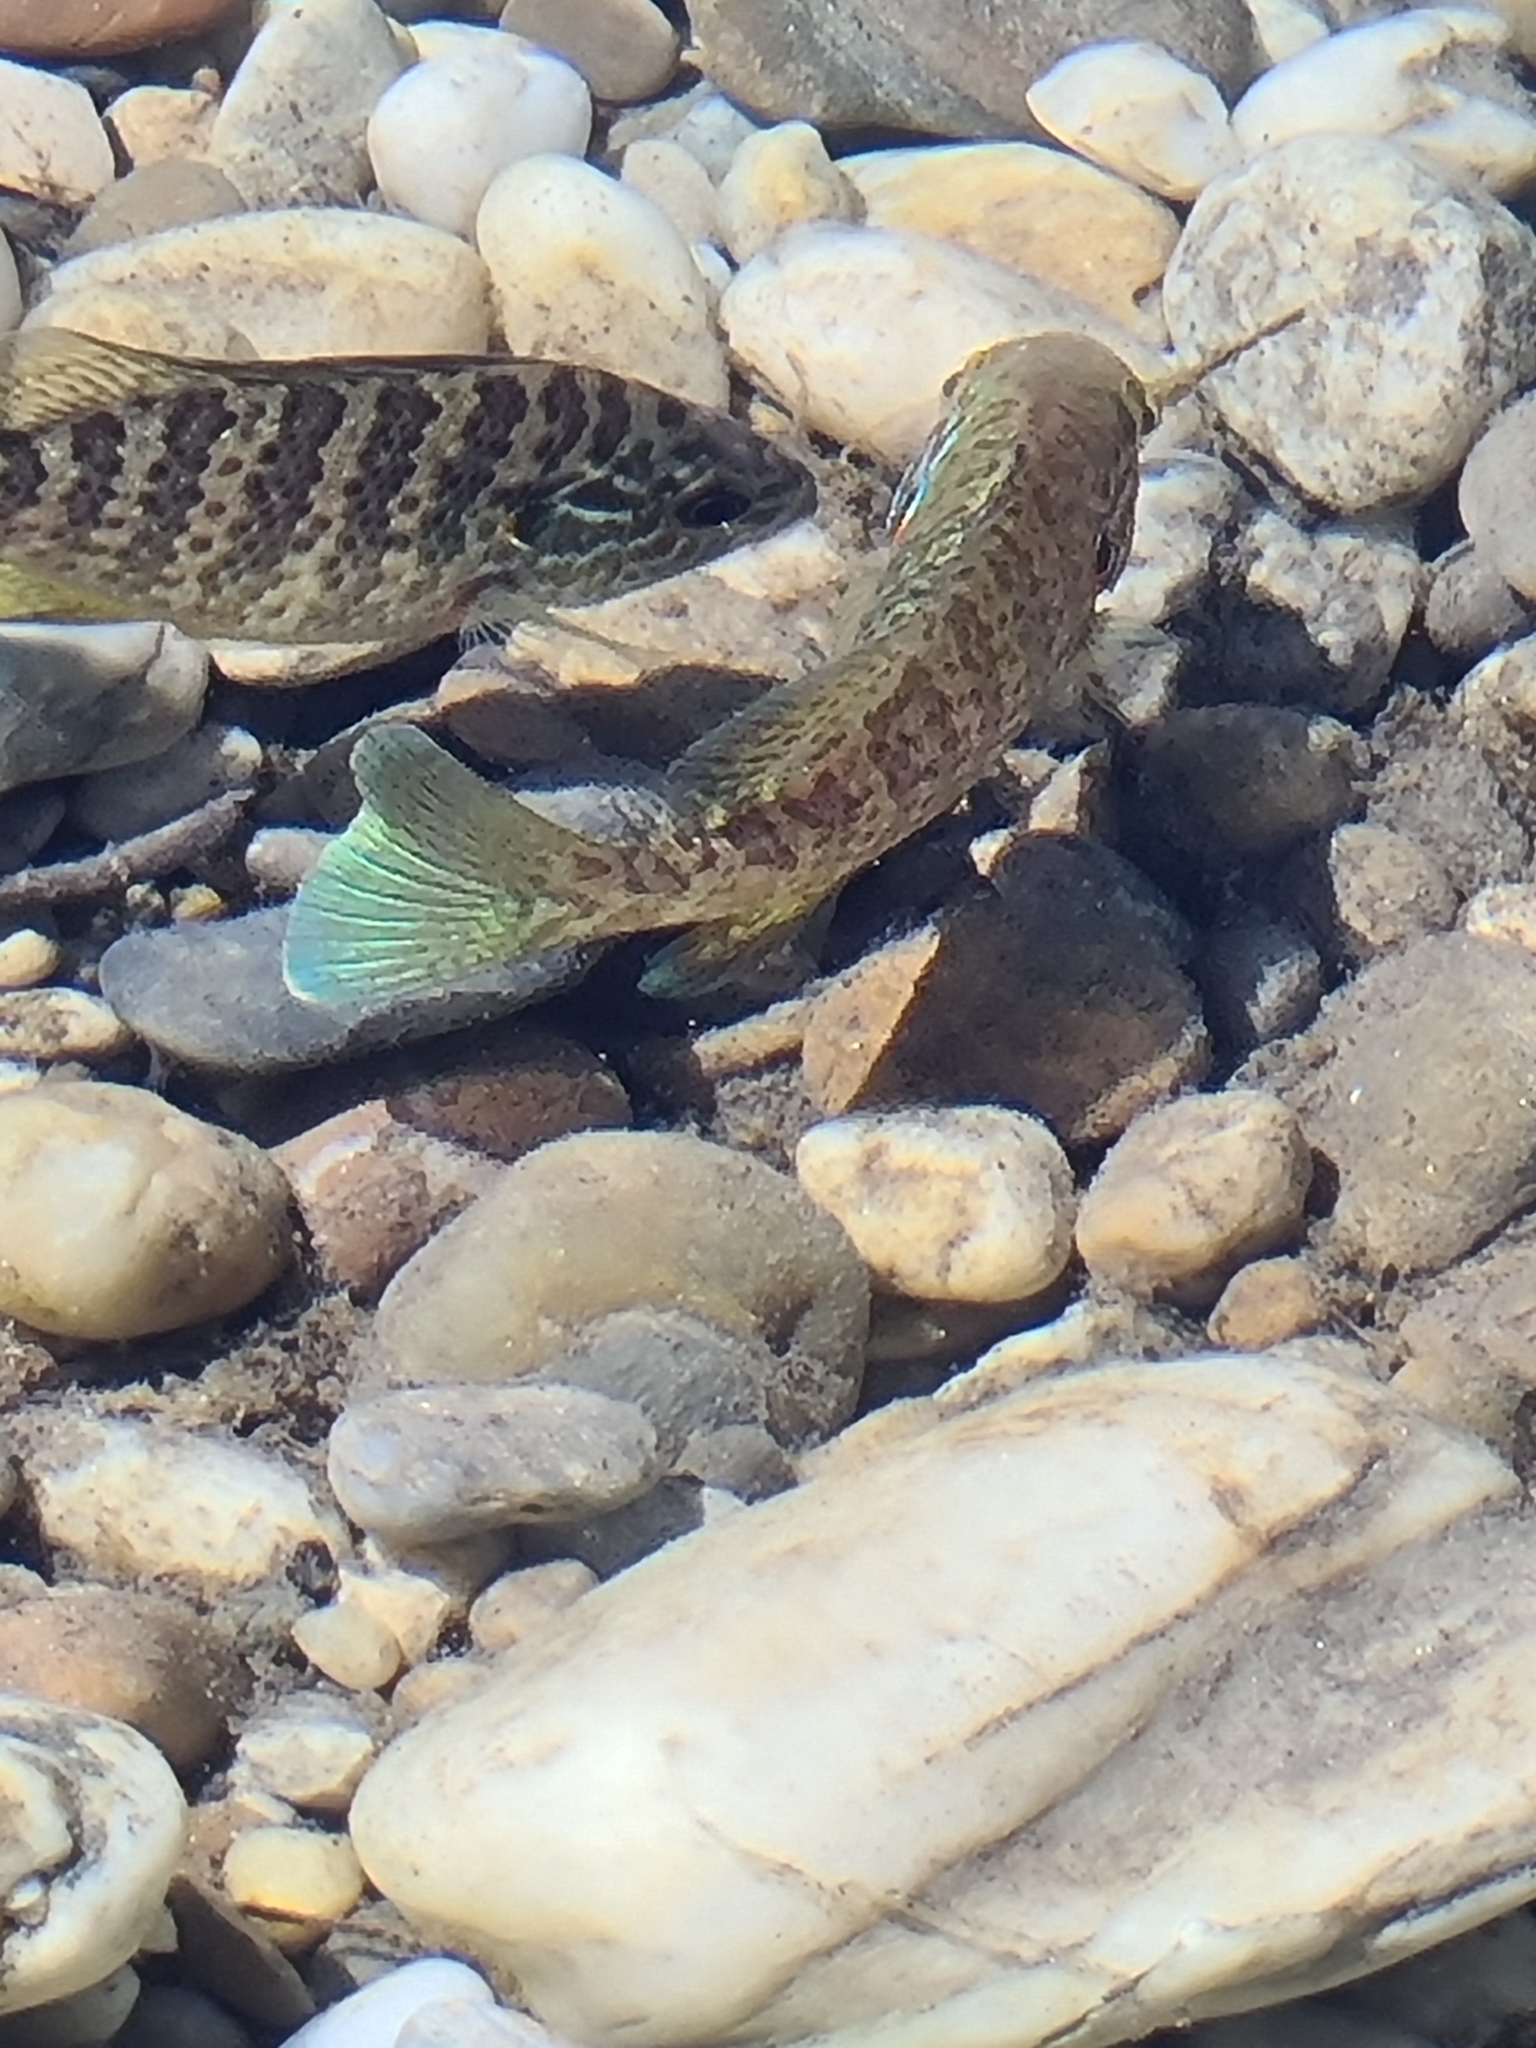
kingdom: Animalia
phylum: Chordata
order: Perciformes
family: Centrarchidae
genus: Lepomis
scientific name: Lepomis gibbosus
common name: Pumpkinseed
